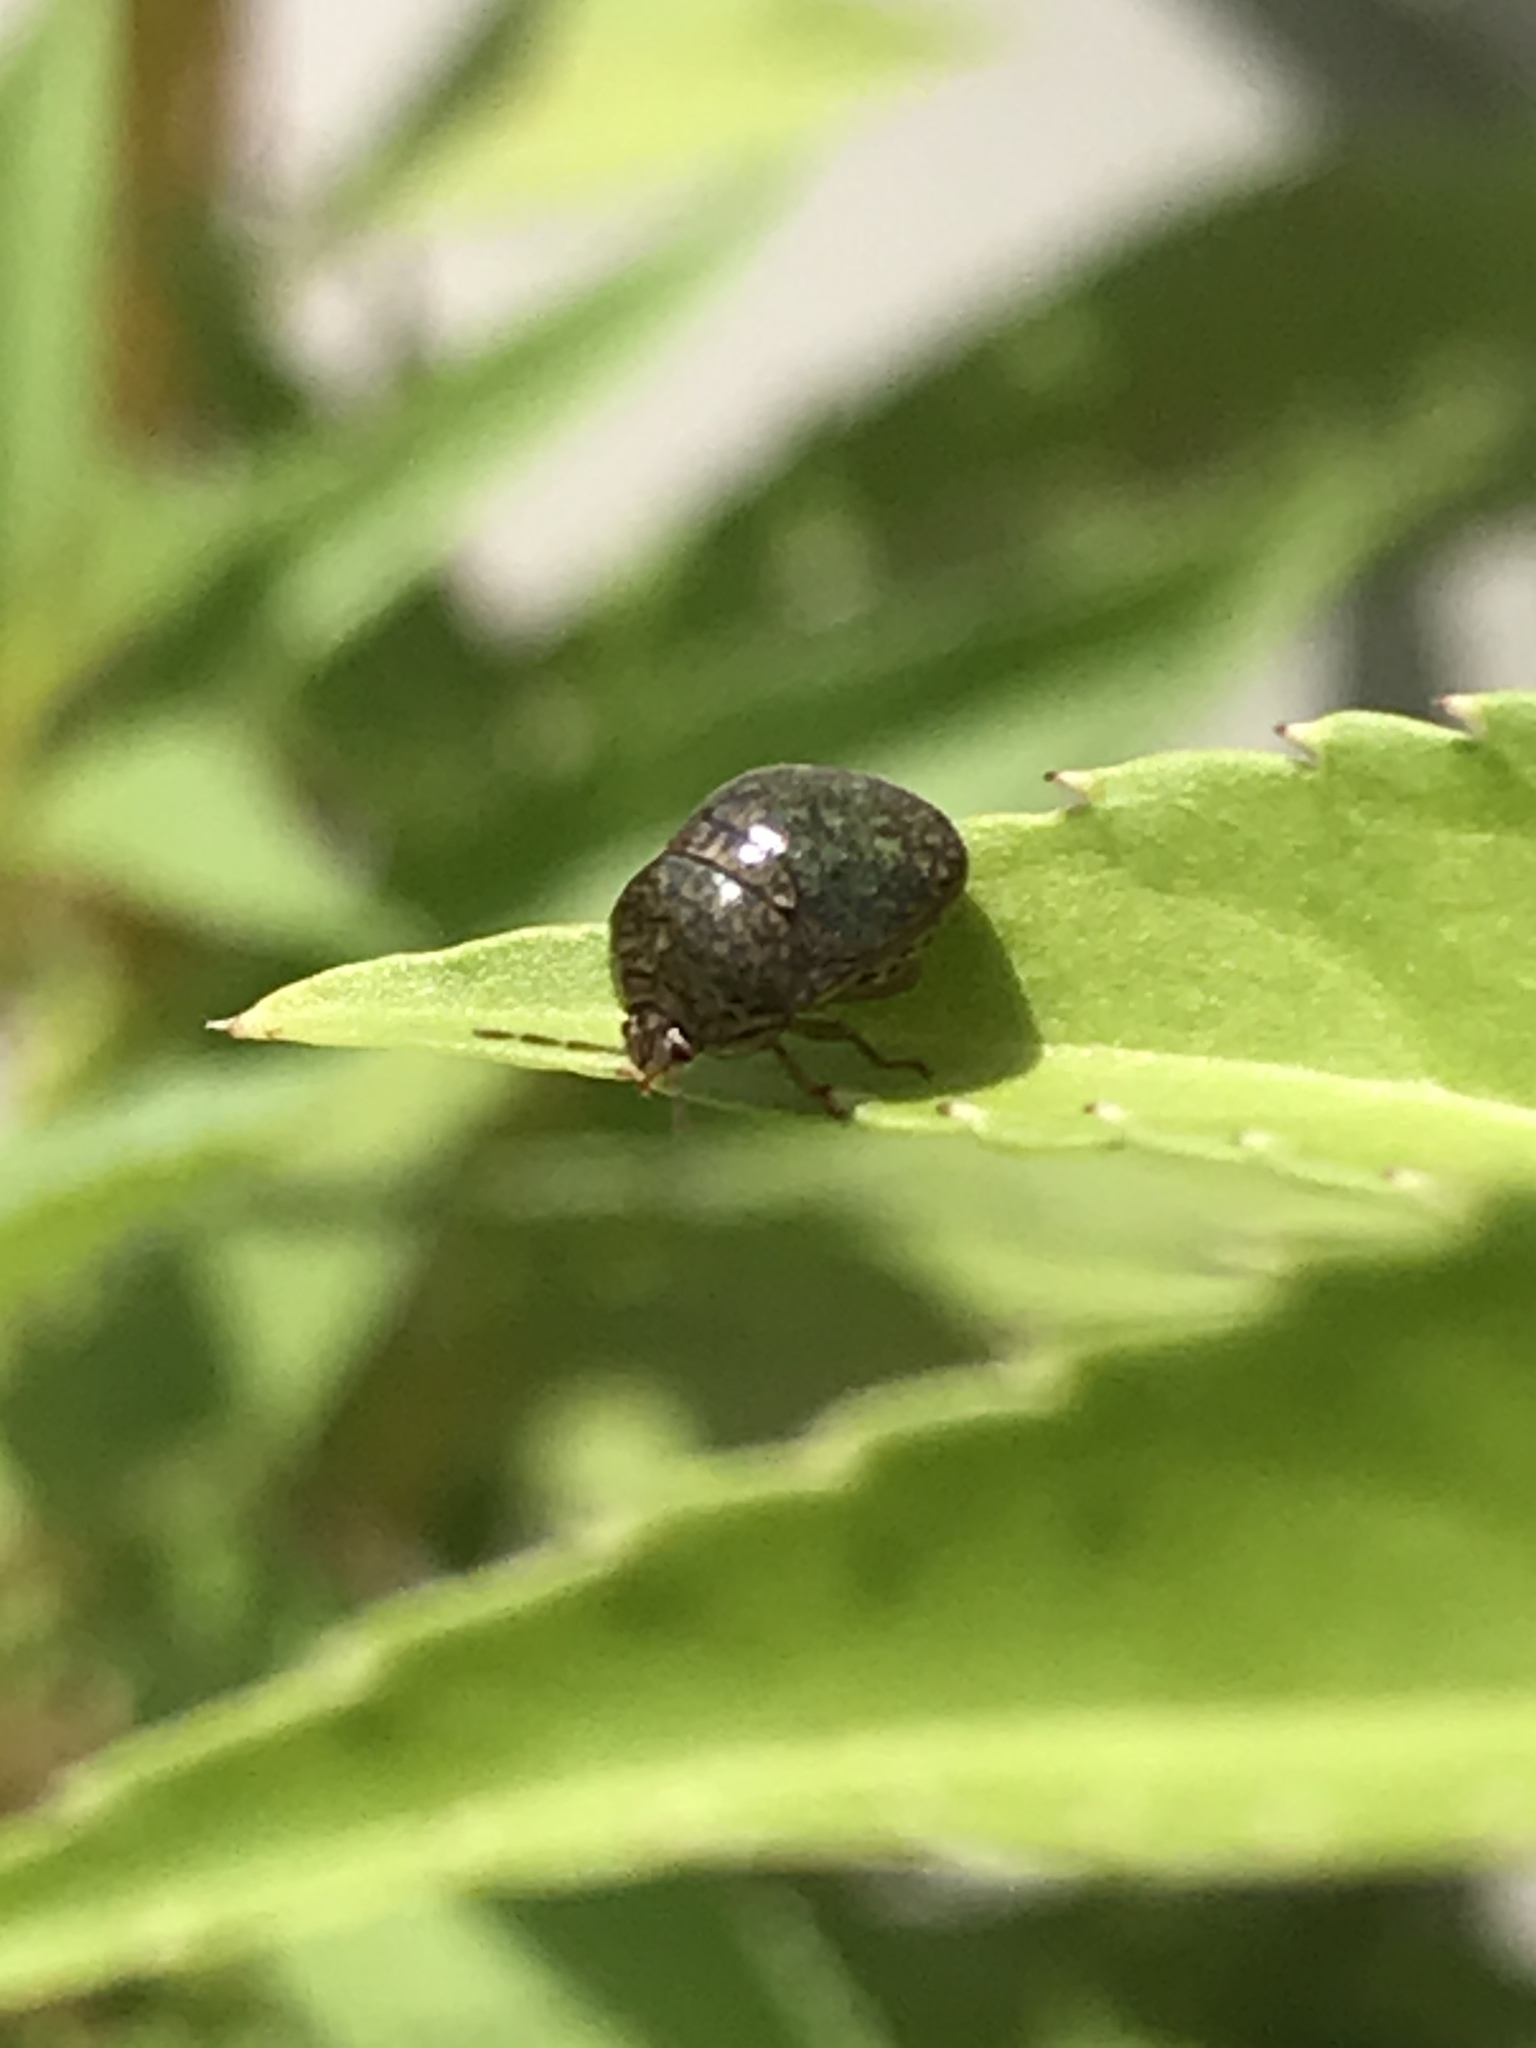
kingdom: Animalia
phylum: Arthropoda
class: Insecta
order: Hemiptera
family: Plataspidae
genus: Megacopta
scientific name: Megacopta cribraria
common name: Bean plataspid
